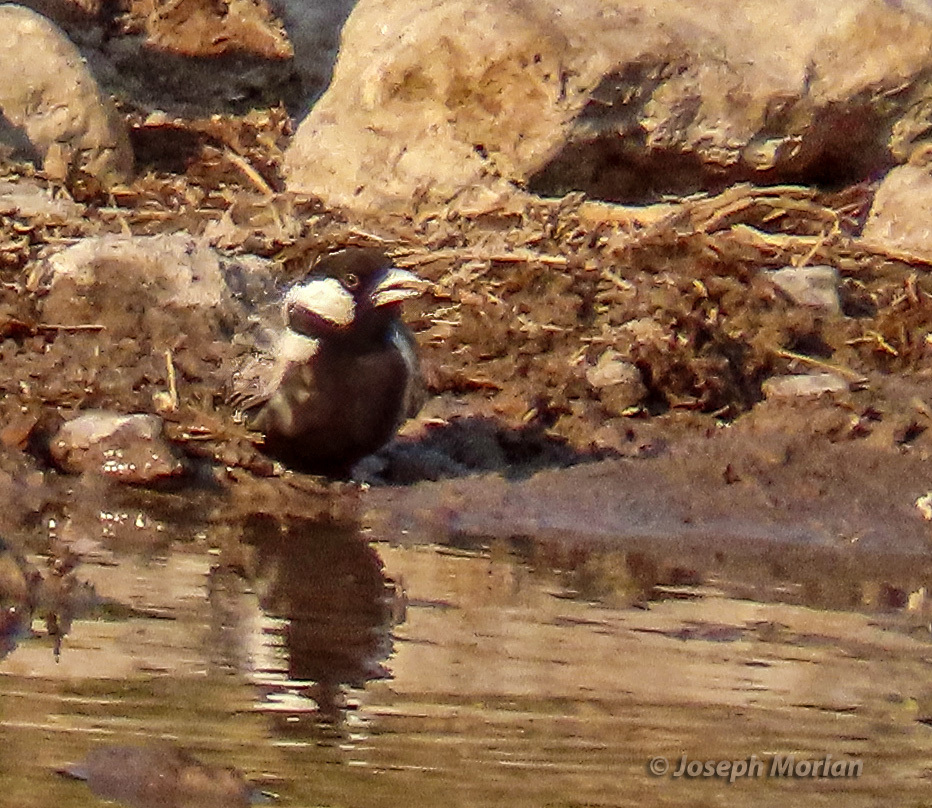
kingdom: Animalia
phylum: Chordata
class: Aves
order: Passeriformes
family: Alaudidae
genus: Eremopterix
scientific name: Eremopterix verticalis
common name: Grey-backed sparrow-lark
